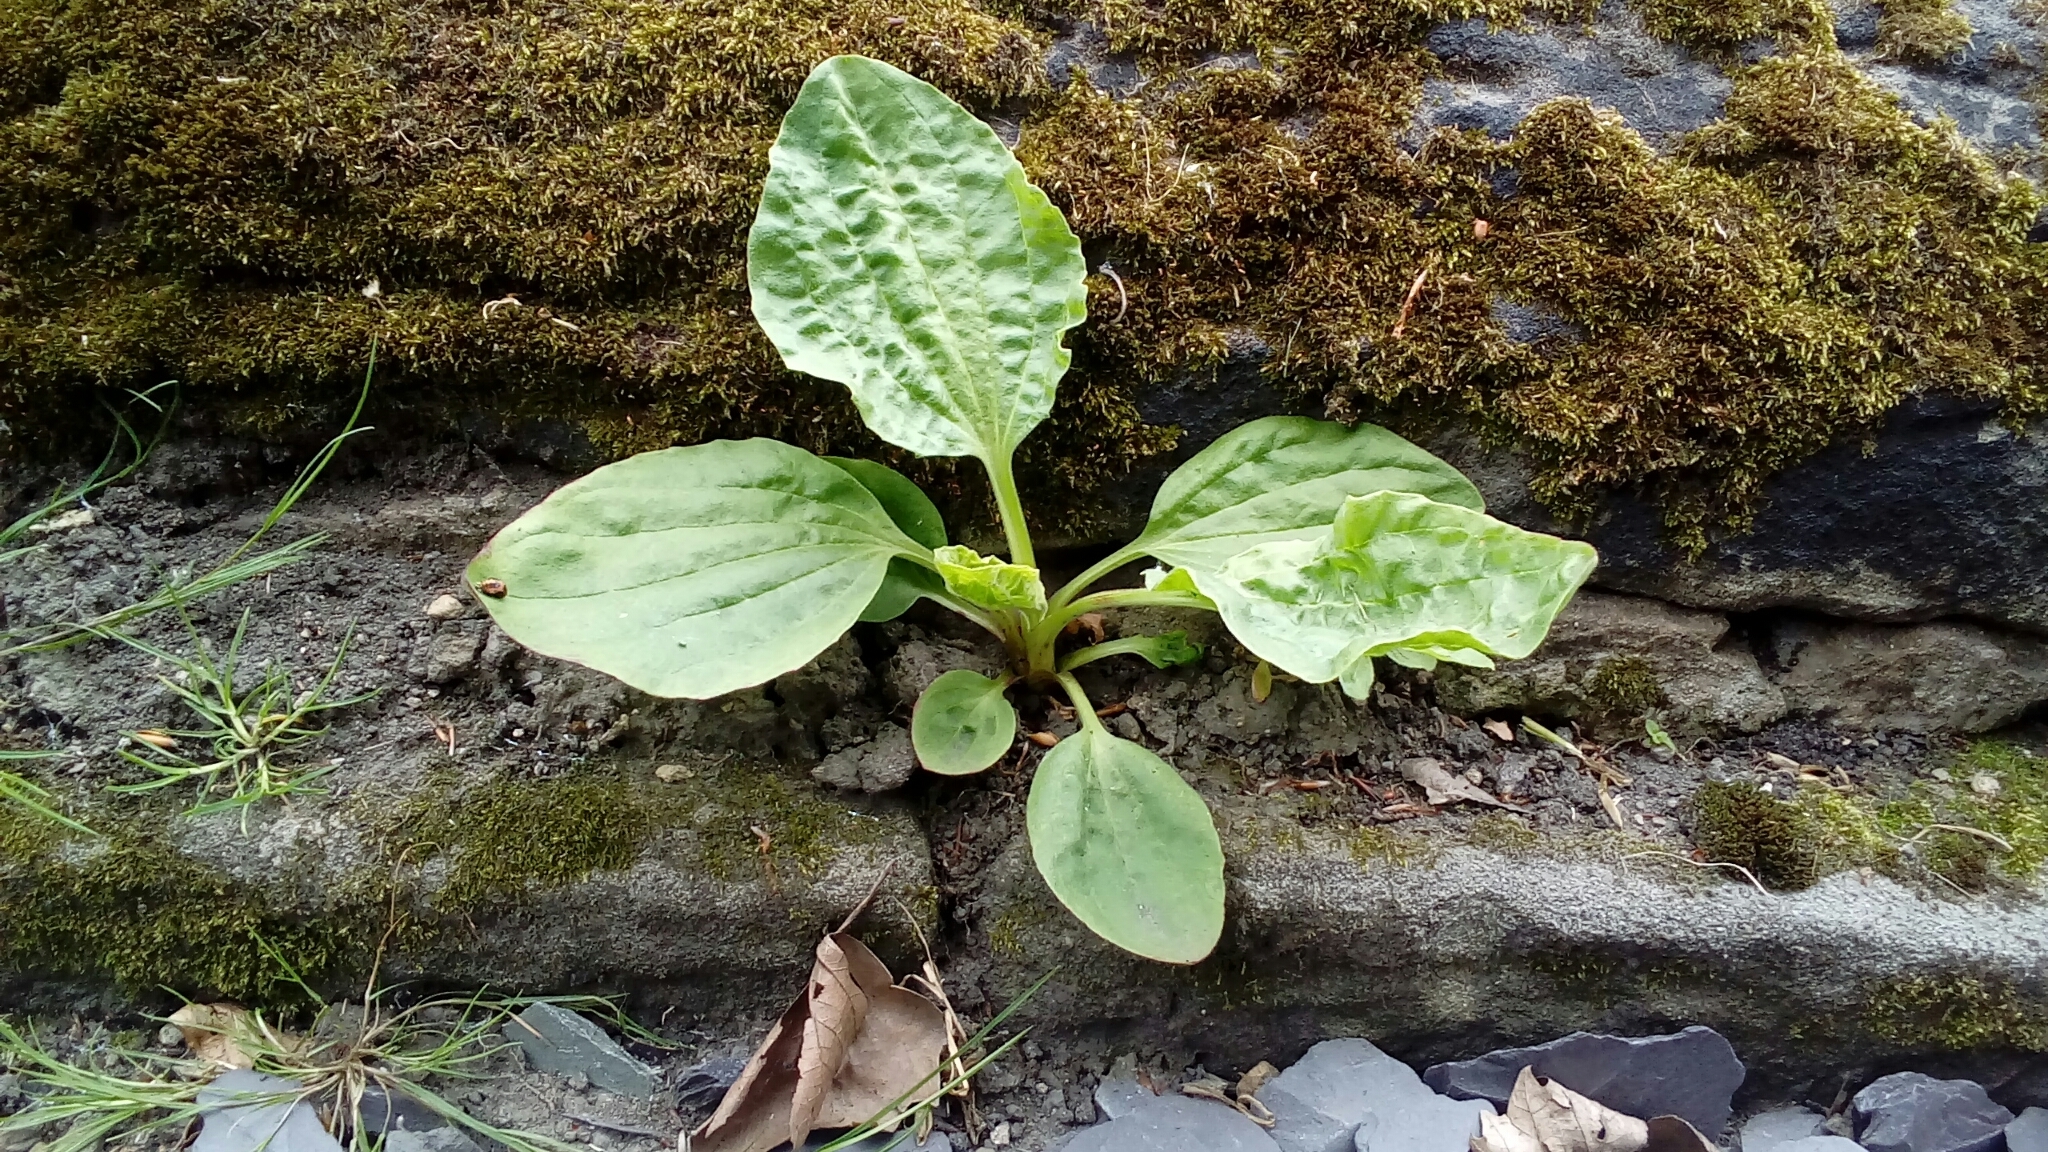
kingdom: Plantae
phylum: Tracheophyta
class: Magnoliopsida
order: Lamiales
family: Plantaginaceae
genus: Plantago
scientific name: Plantago major
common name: Common plantain
